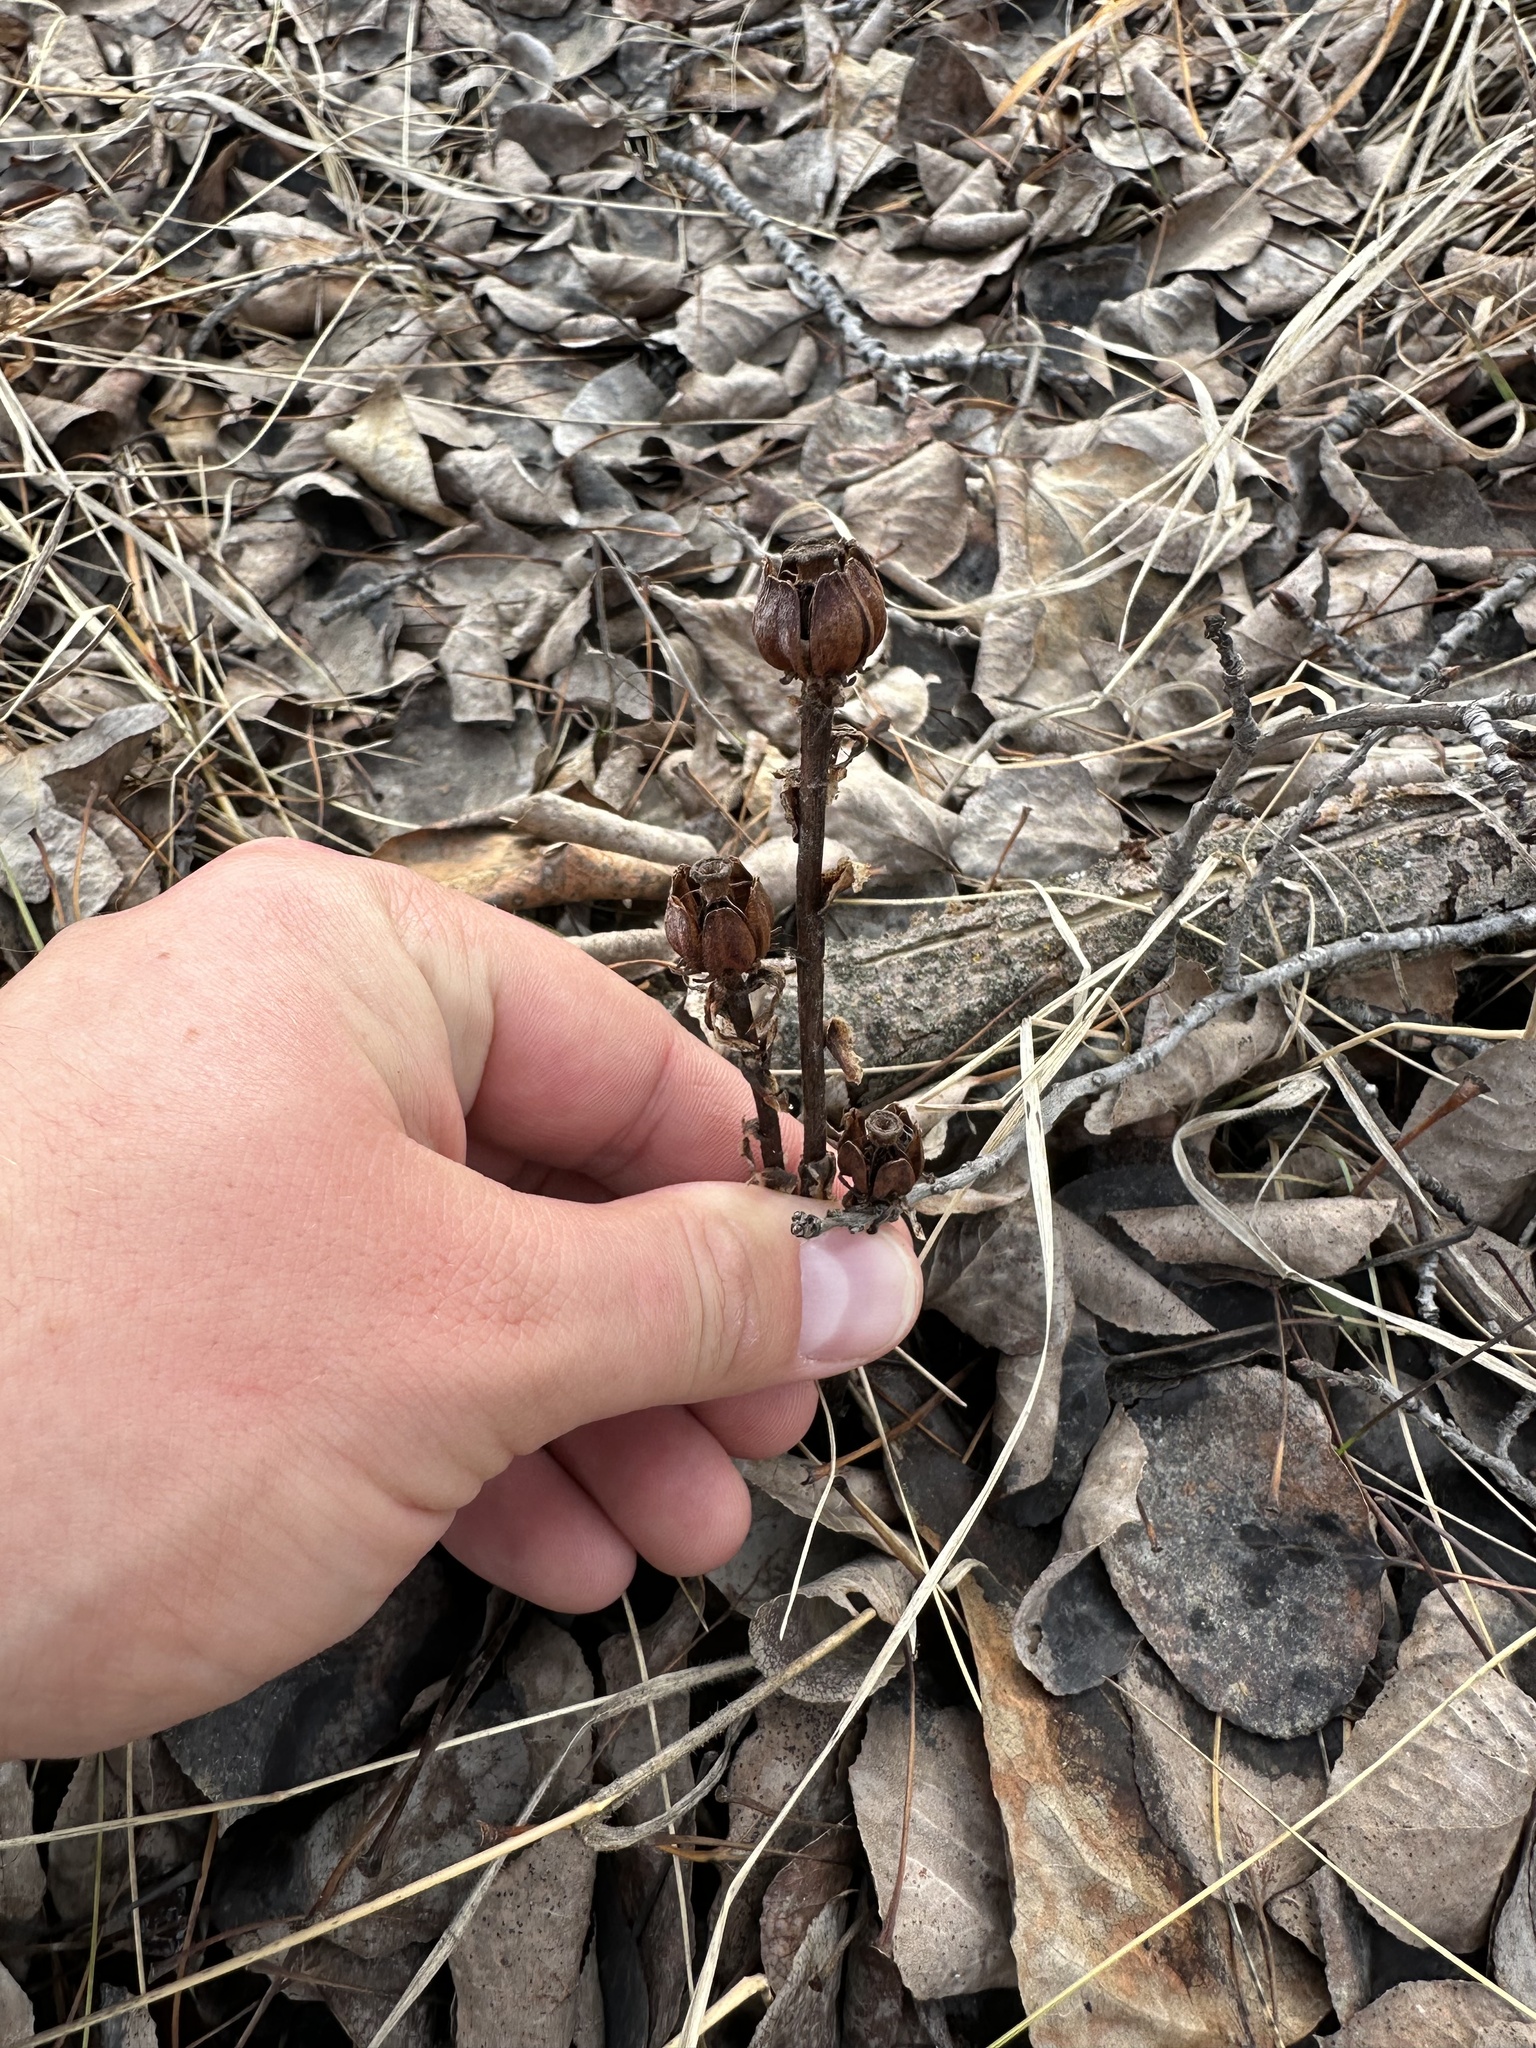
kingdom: Plantae
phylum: Tracheophyta
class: Magnoliopsida
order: Ericales
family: Ericaceae
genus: Monotropa
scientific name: Monotropa uniflora
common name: Convulsion root
